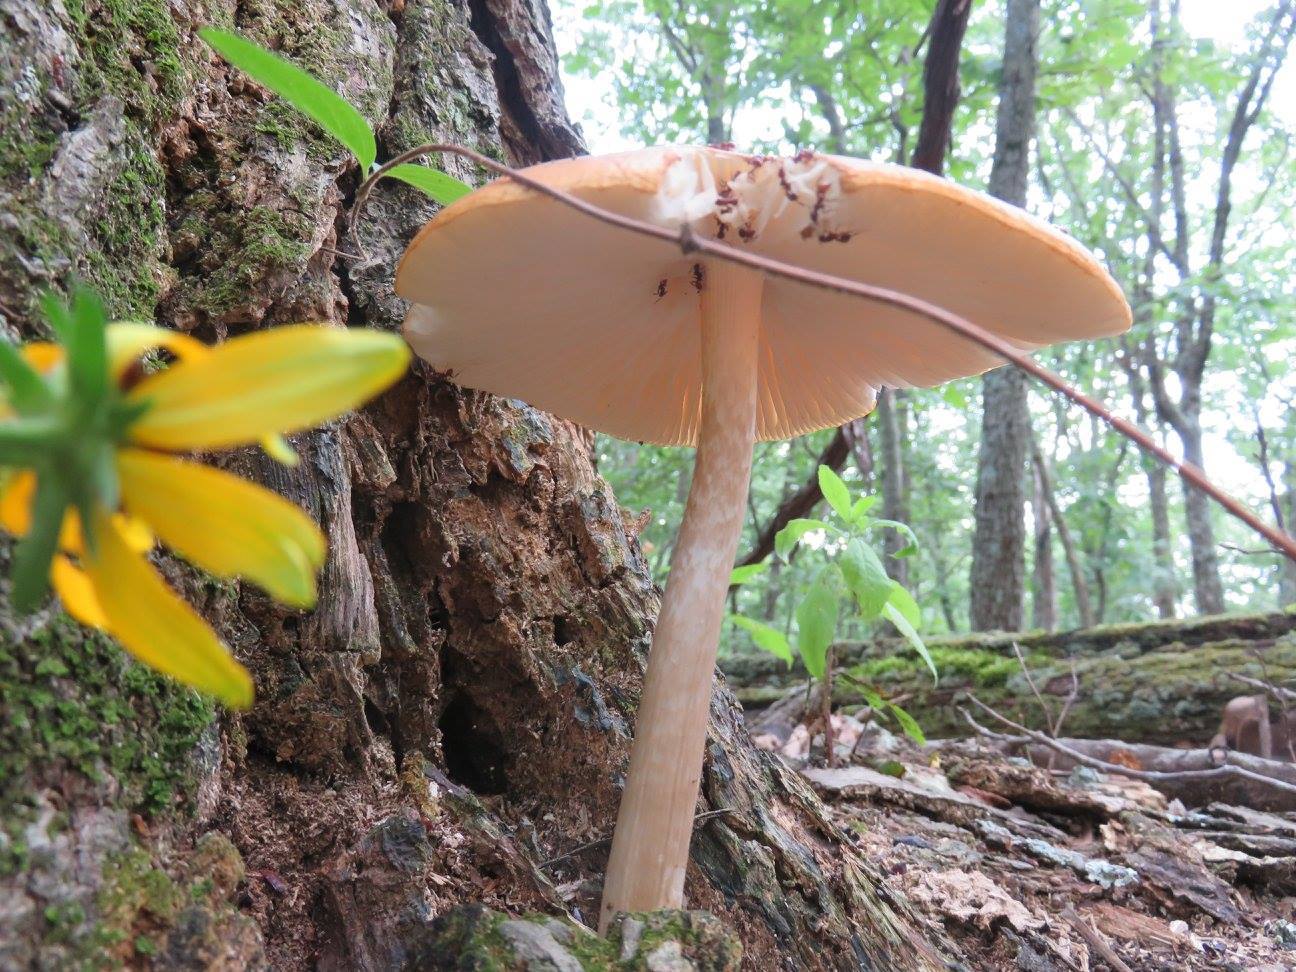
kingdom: Animalia
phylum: Arthropoda
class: Insecta
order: Hymenoptera
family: Formicidae
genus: Aphaenogaster
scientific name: Aphaenogaster tennesseensis
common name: Tennessee thread-waisted ant
